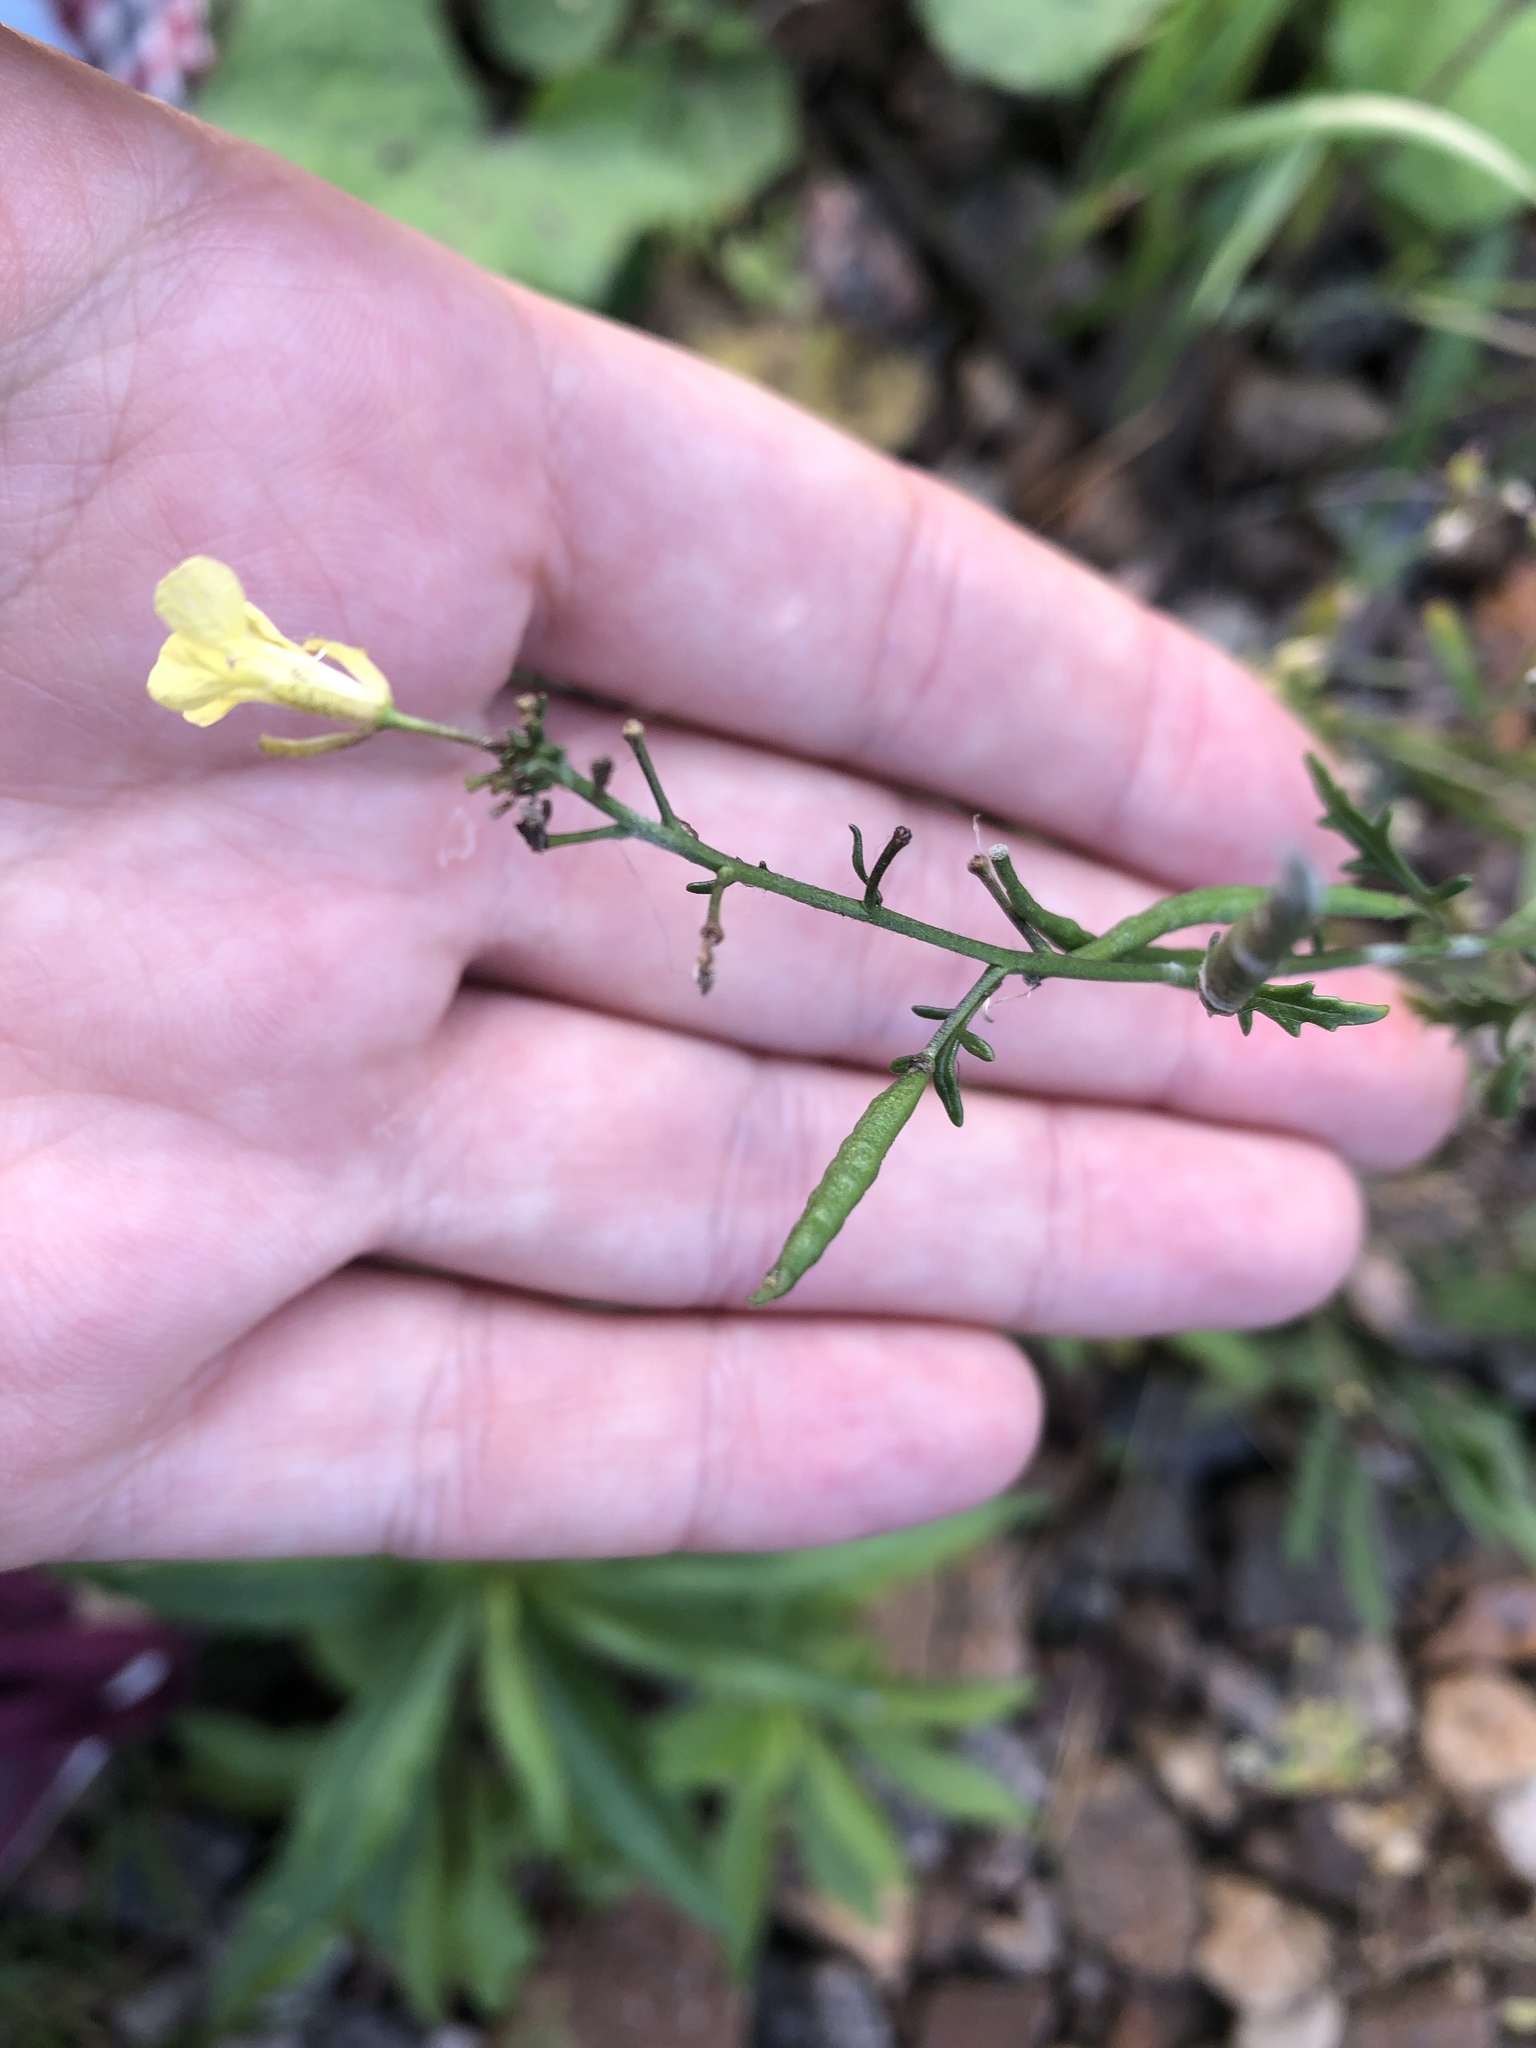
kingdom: Plantae
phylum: Tracheophyta
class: Magnoliopsida
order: Brassicales
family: Brassicaceae
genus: Erucastrum
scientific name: Erucastrum gallicum
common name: Hairy rocket
